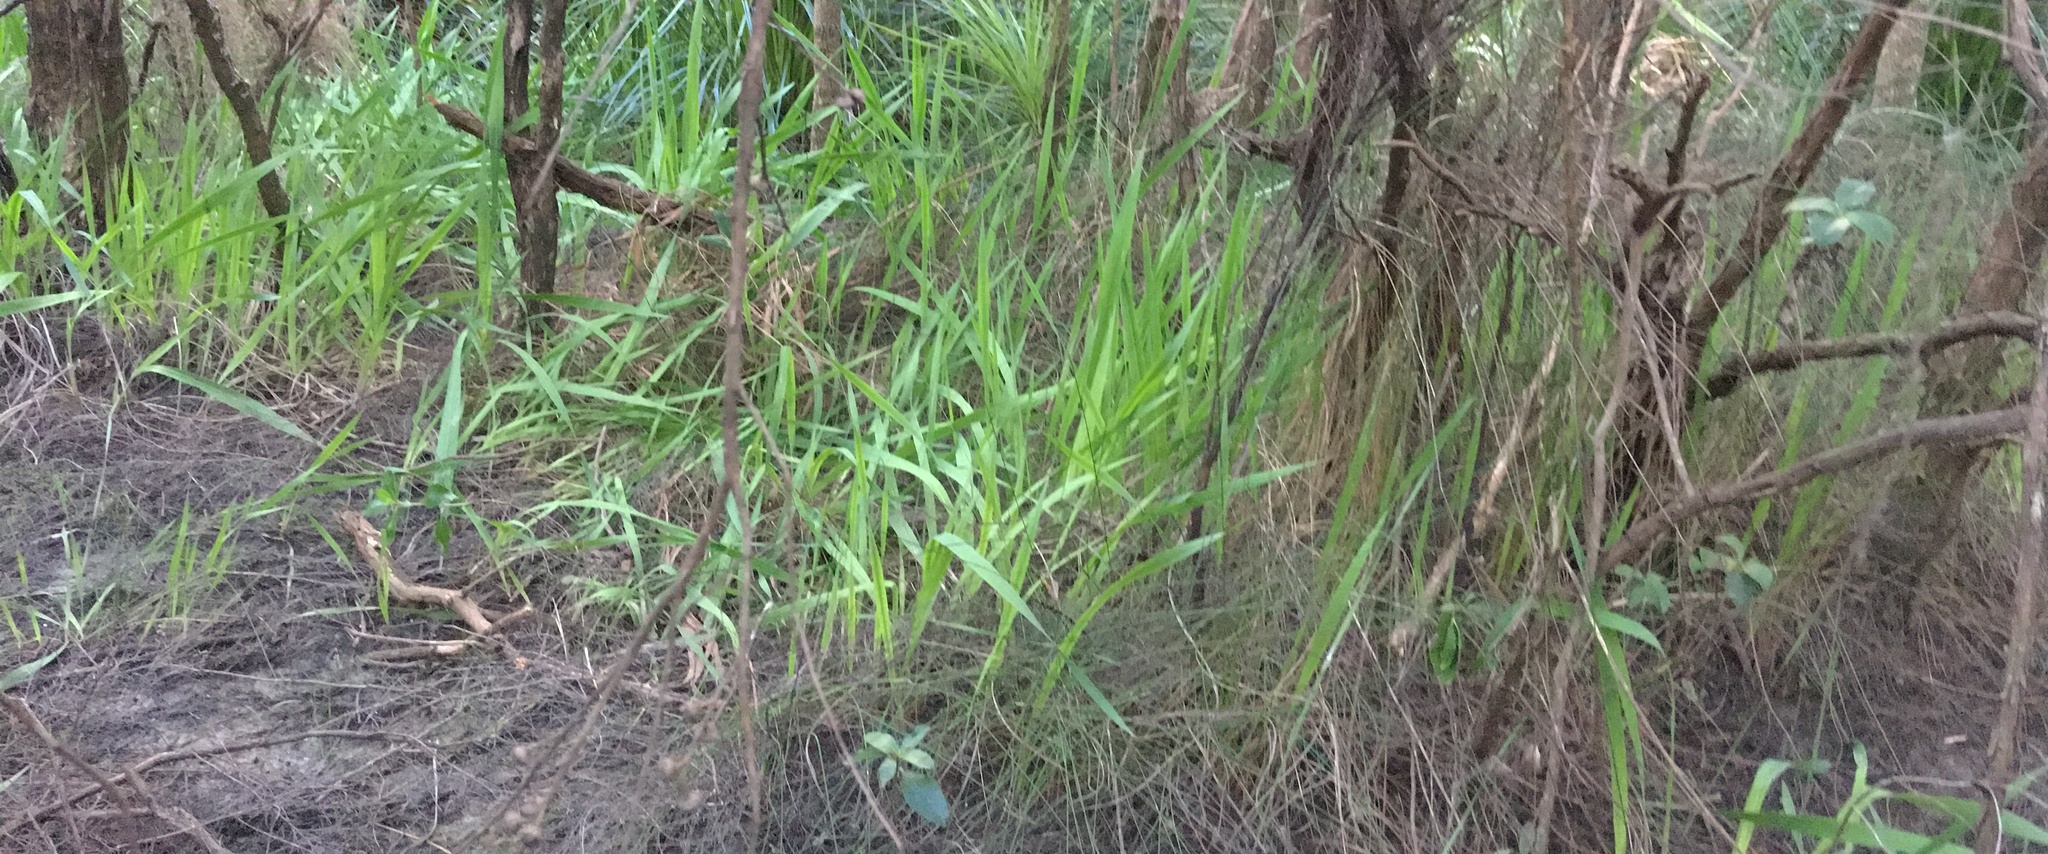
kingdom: Plantae
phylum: Tracheophyta
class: Liliopsida
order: Asparagales
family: Iridaceae
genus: Watsonia
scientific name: Watsonia meriana
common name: Bulbil bugle-lily
